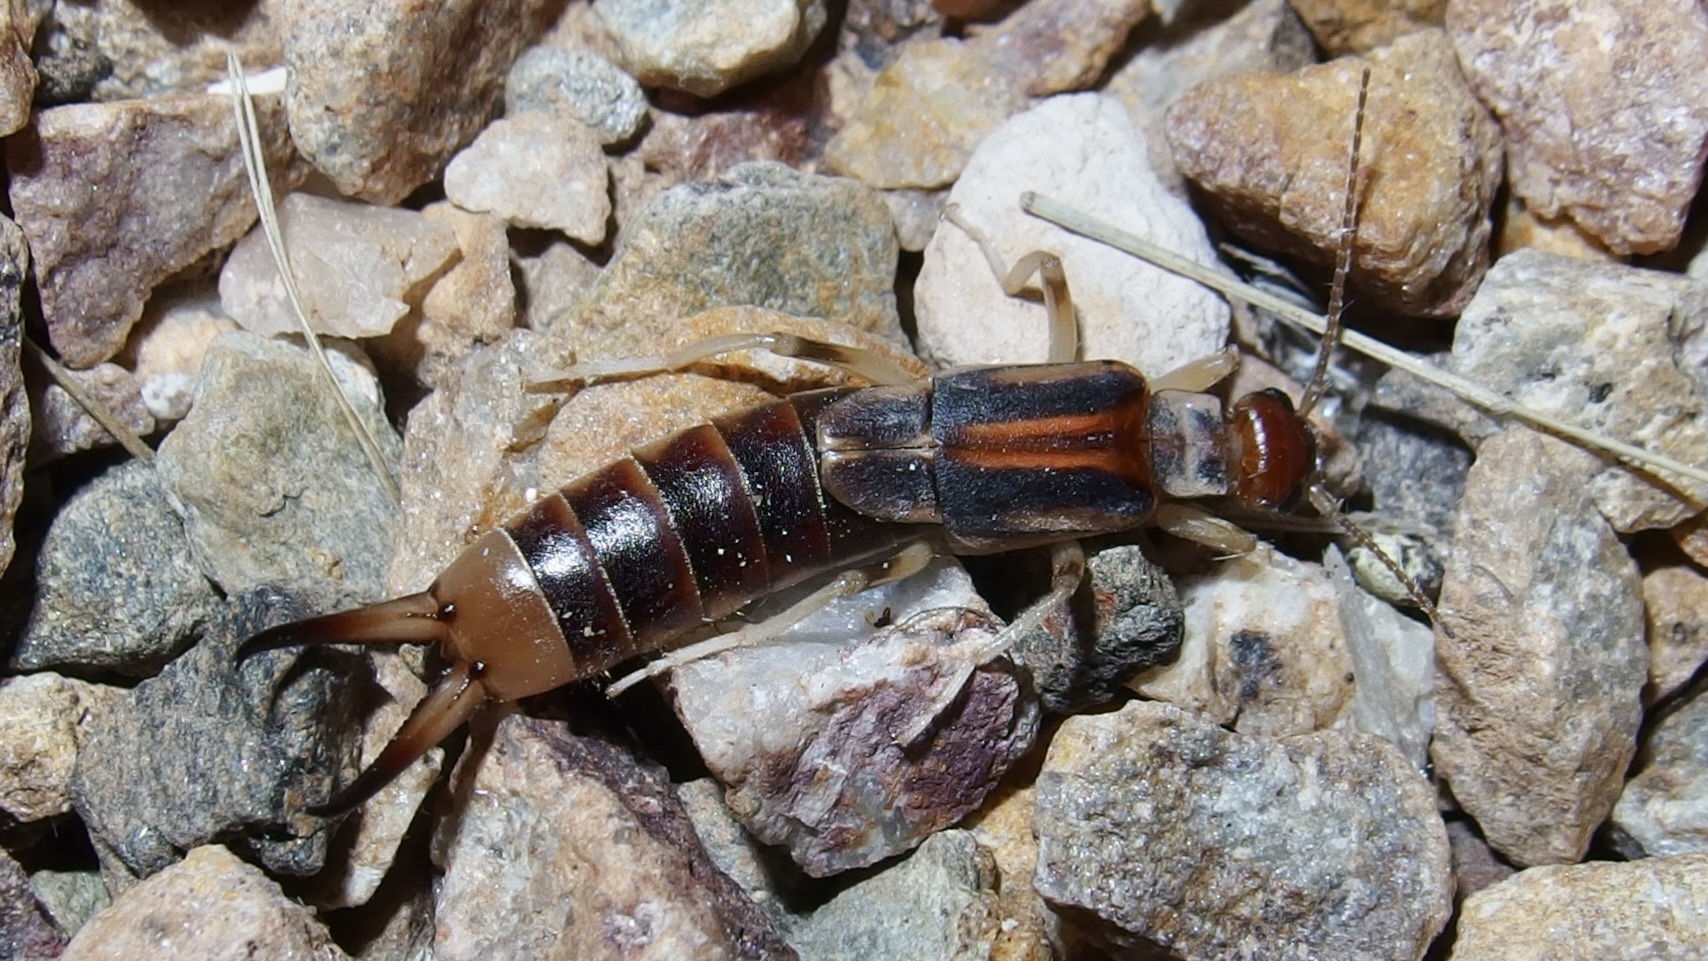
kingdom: Animalia
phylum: Arthropoda
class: Insecta
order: Dermaptera
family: Labiduridae
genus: Labidura
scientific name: Labidura riparia
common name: Striped earwig
